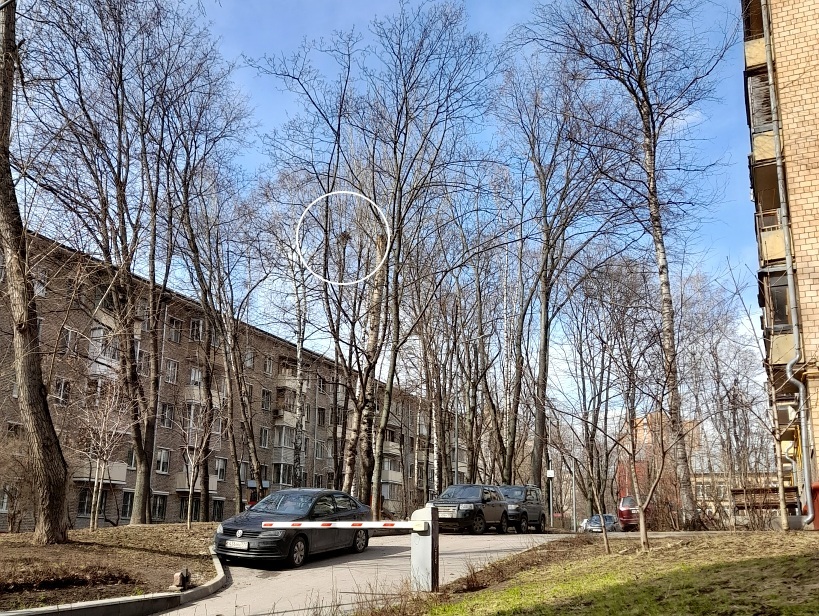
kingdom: Animalia
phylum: Chordata
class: Aves
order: Passeriformes
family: Corvidae
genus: Corvus
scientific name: Corvus cornix
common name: Hooded crow
